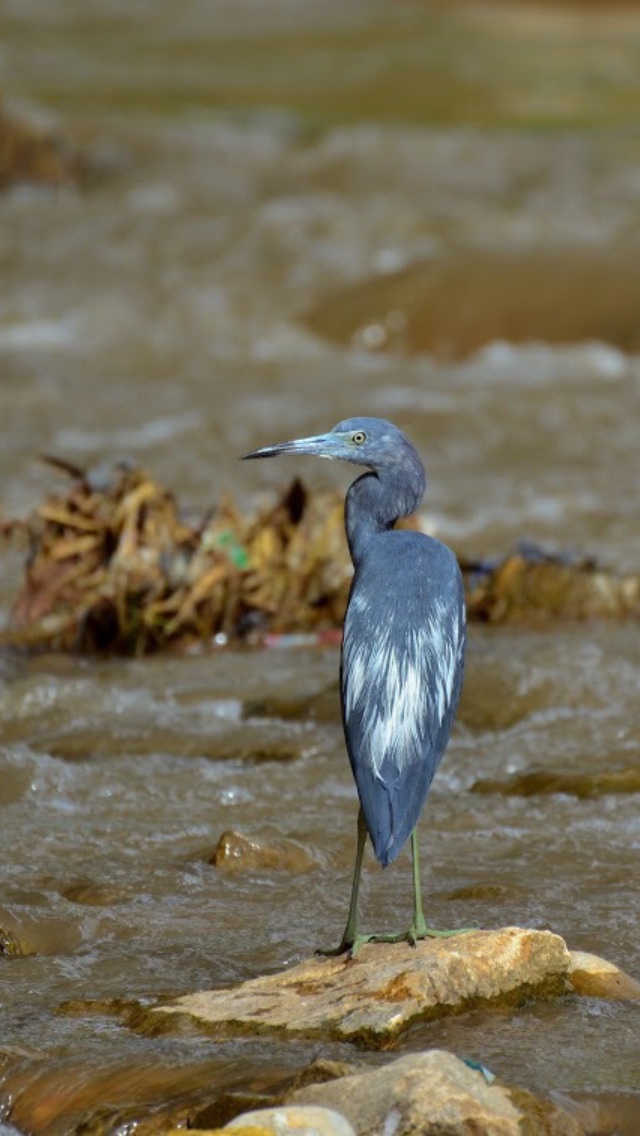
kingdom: Animalia
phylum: Chordata
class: Aves
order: Pelecaniformes
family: Ardeidae
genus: Egretta
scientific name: Egretta caerulea
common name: Little blue heron
